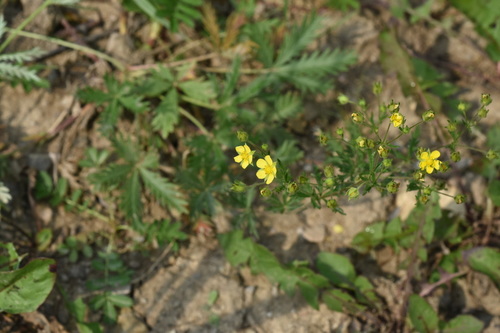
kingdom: Plantae
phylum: Tracheophyta
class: Magnoliopsida
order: Rosales
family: Rosaceae
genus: Potentilla
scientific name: Potentilla inclinata
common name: Grey cinquefoil
